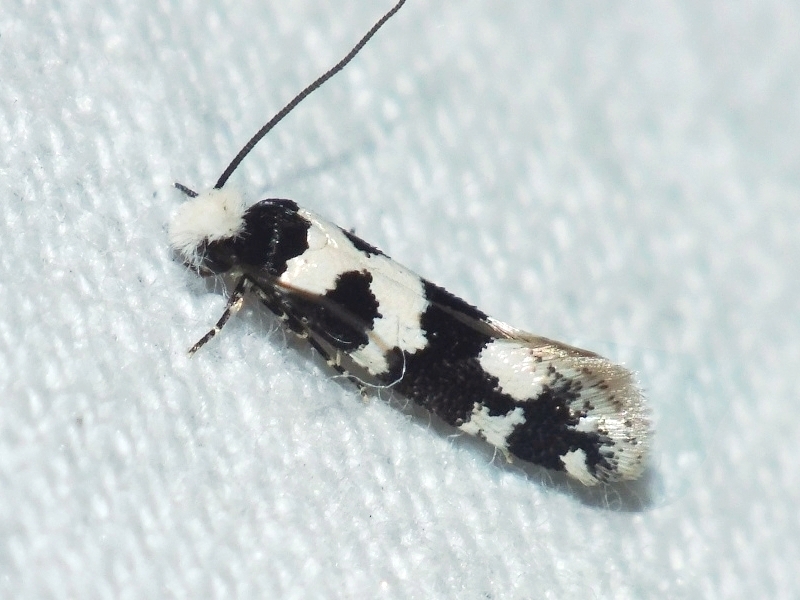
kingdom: Animalia
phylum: Arthropoda
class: Insecta
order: Lepidoptera
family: Tineidae
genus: Neurothaumasia
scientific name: Neurothaumasia ankerella
